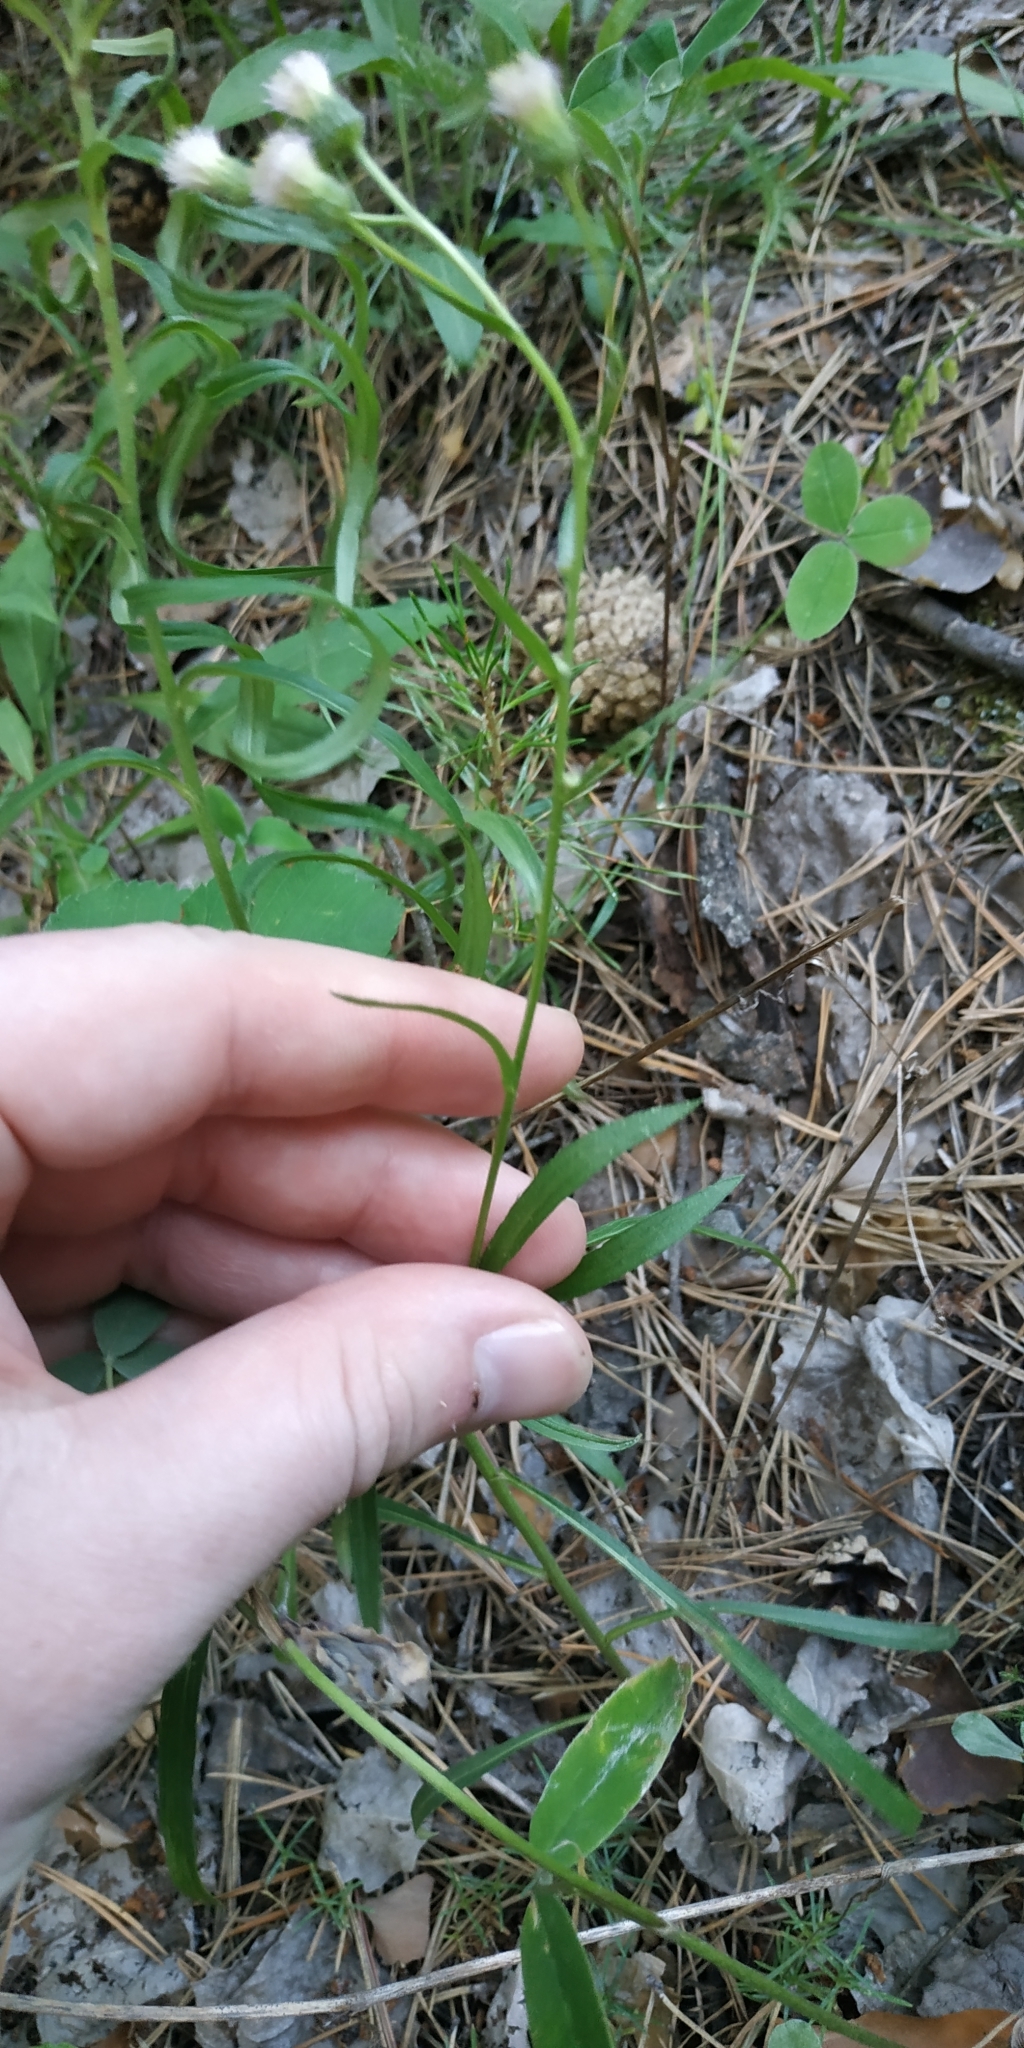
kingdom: Plantae
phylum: Tracheophyta
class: Magnoliopsida
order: Asterales
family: Asteraceae
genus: Erigeron
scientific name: Erigeron acris
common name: Blue fleabane
